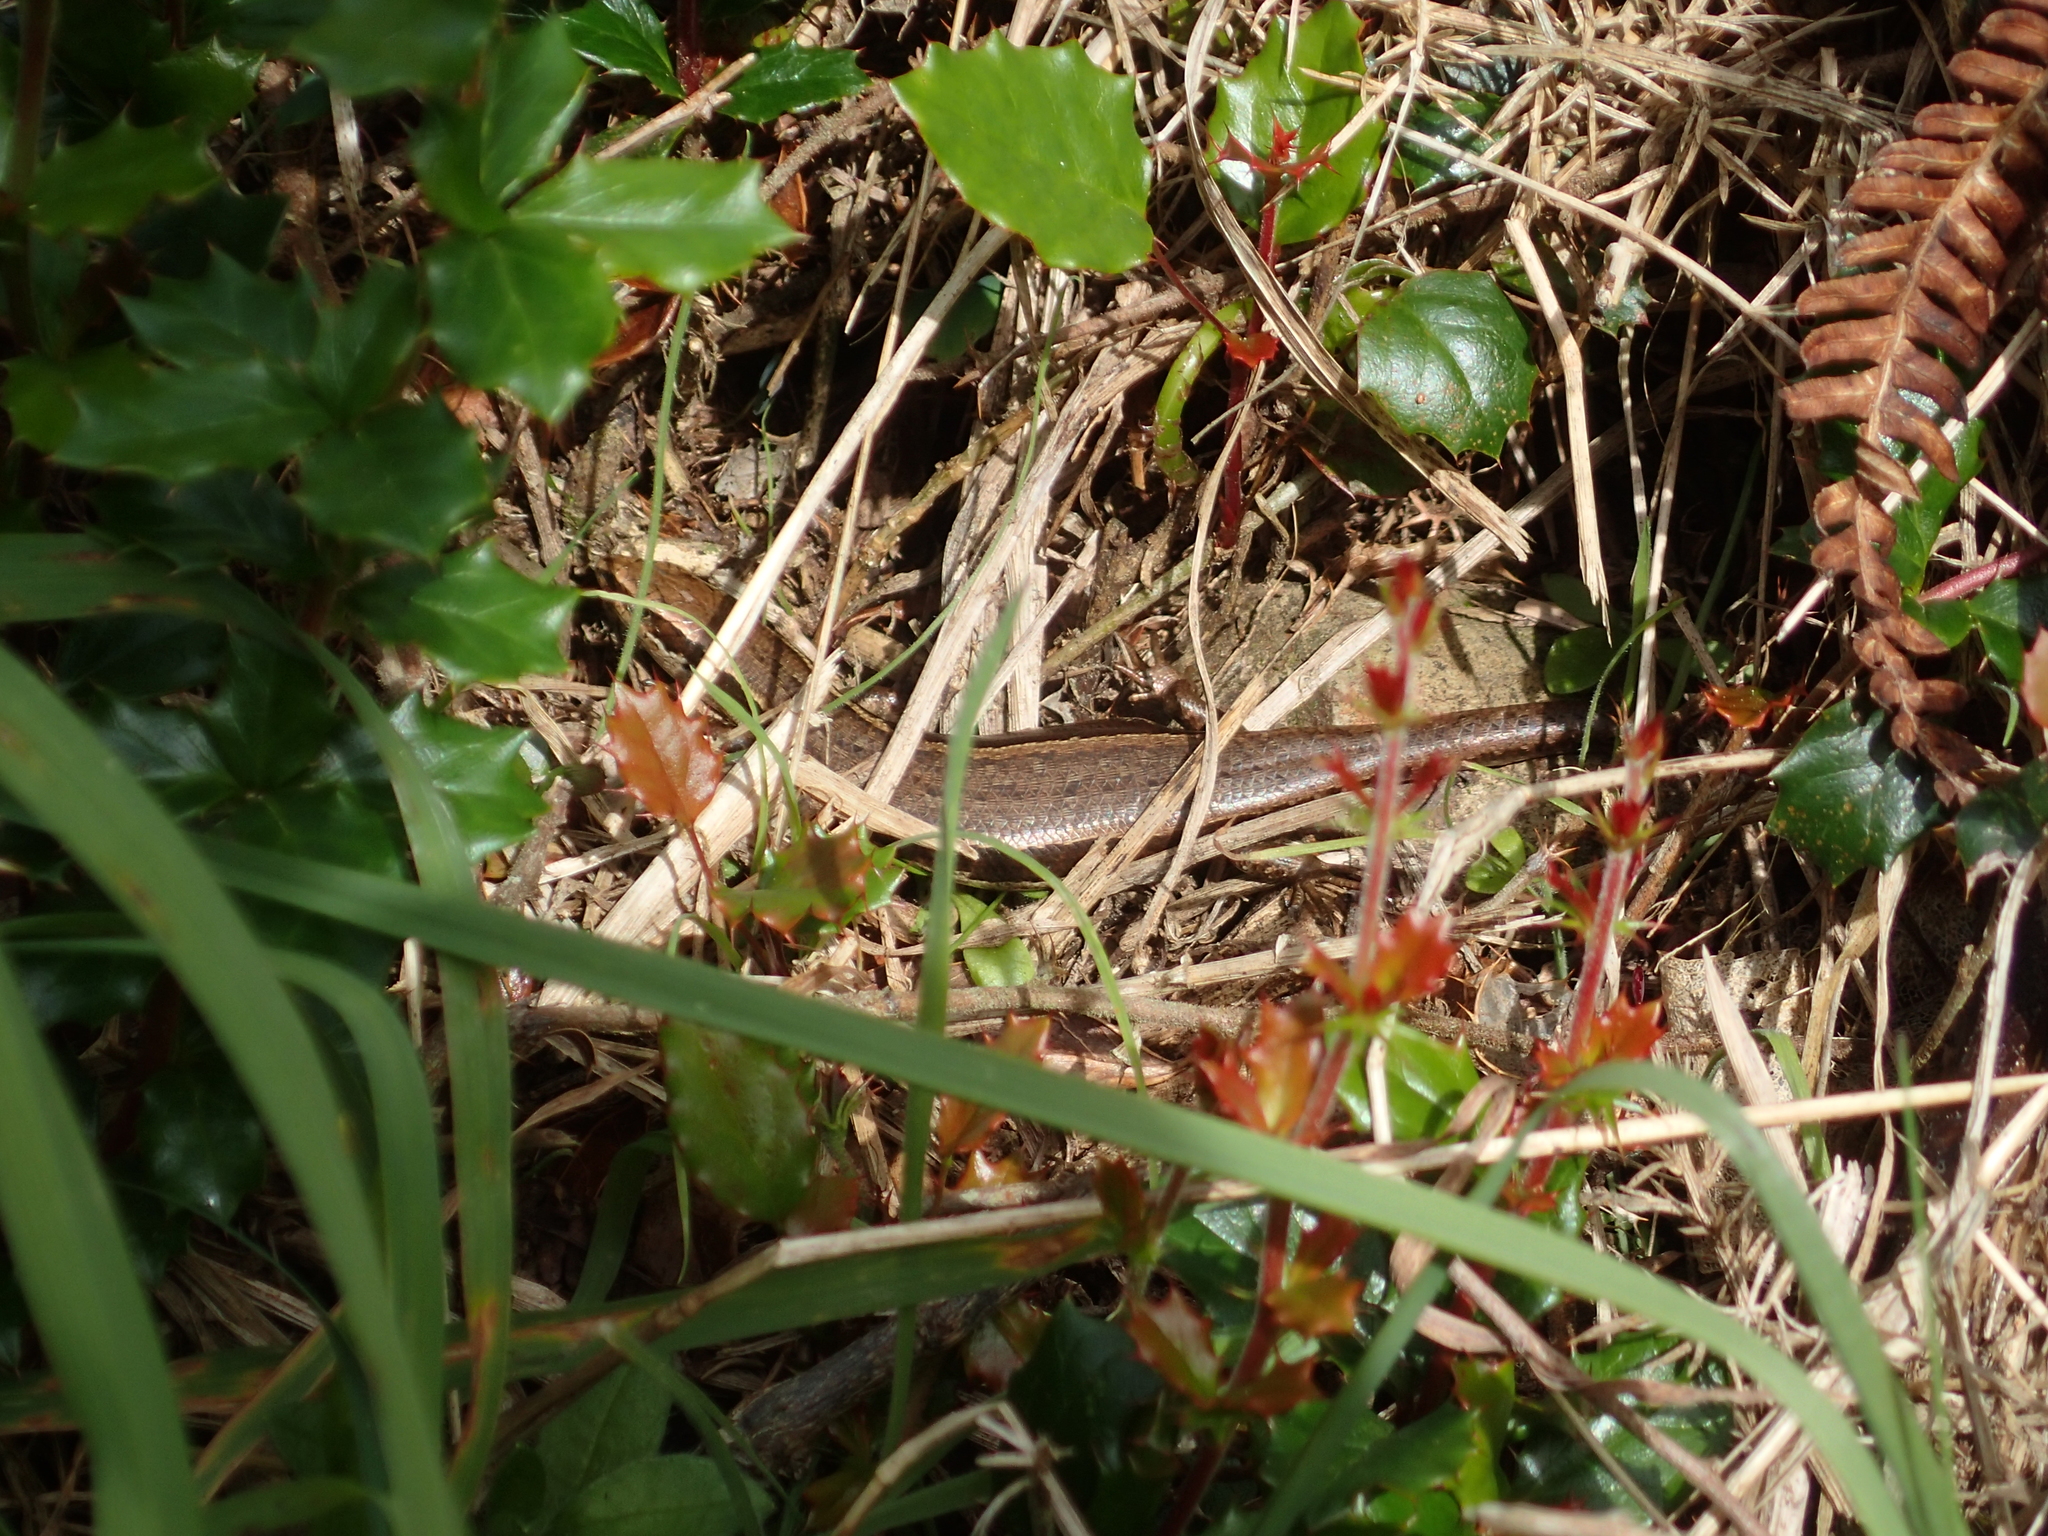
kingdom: Animalia
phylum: Chordata
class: Squamata
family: Scincidae
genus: Oligosoma
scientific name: Oligosoma polychroma
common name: Common new zealand skink
